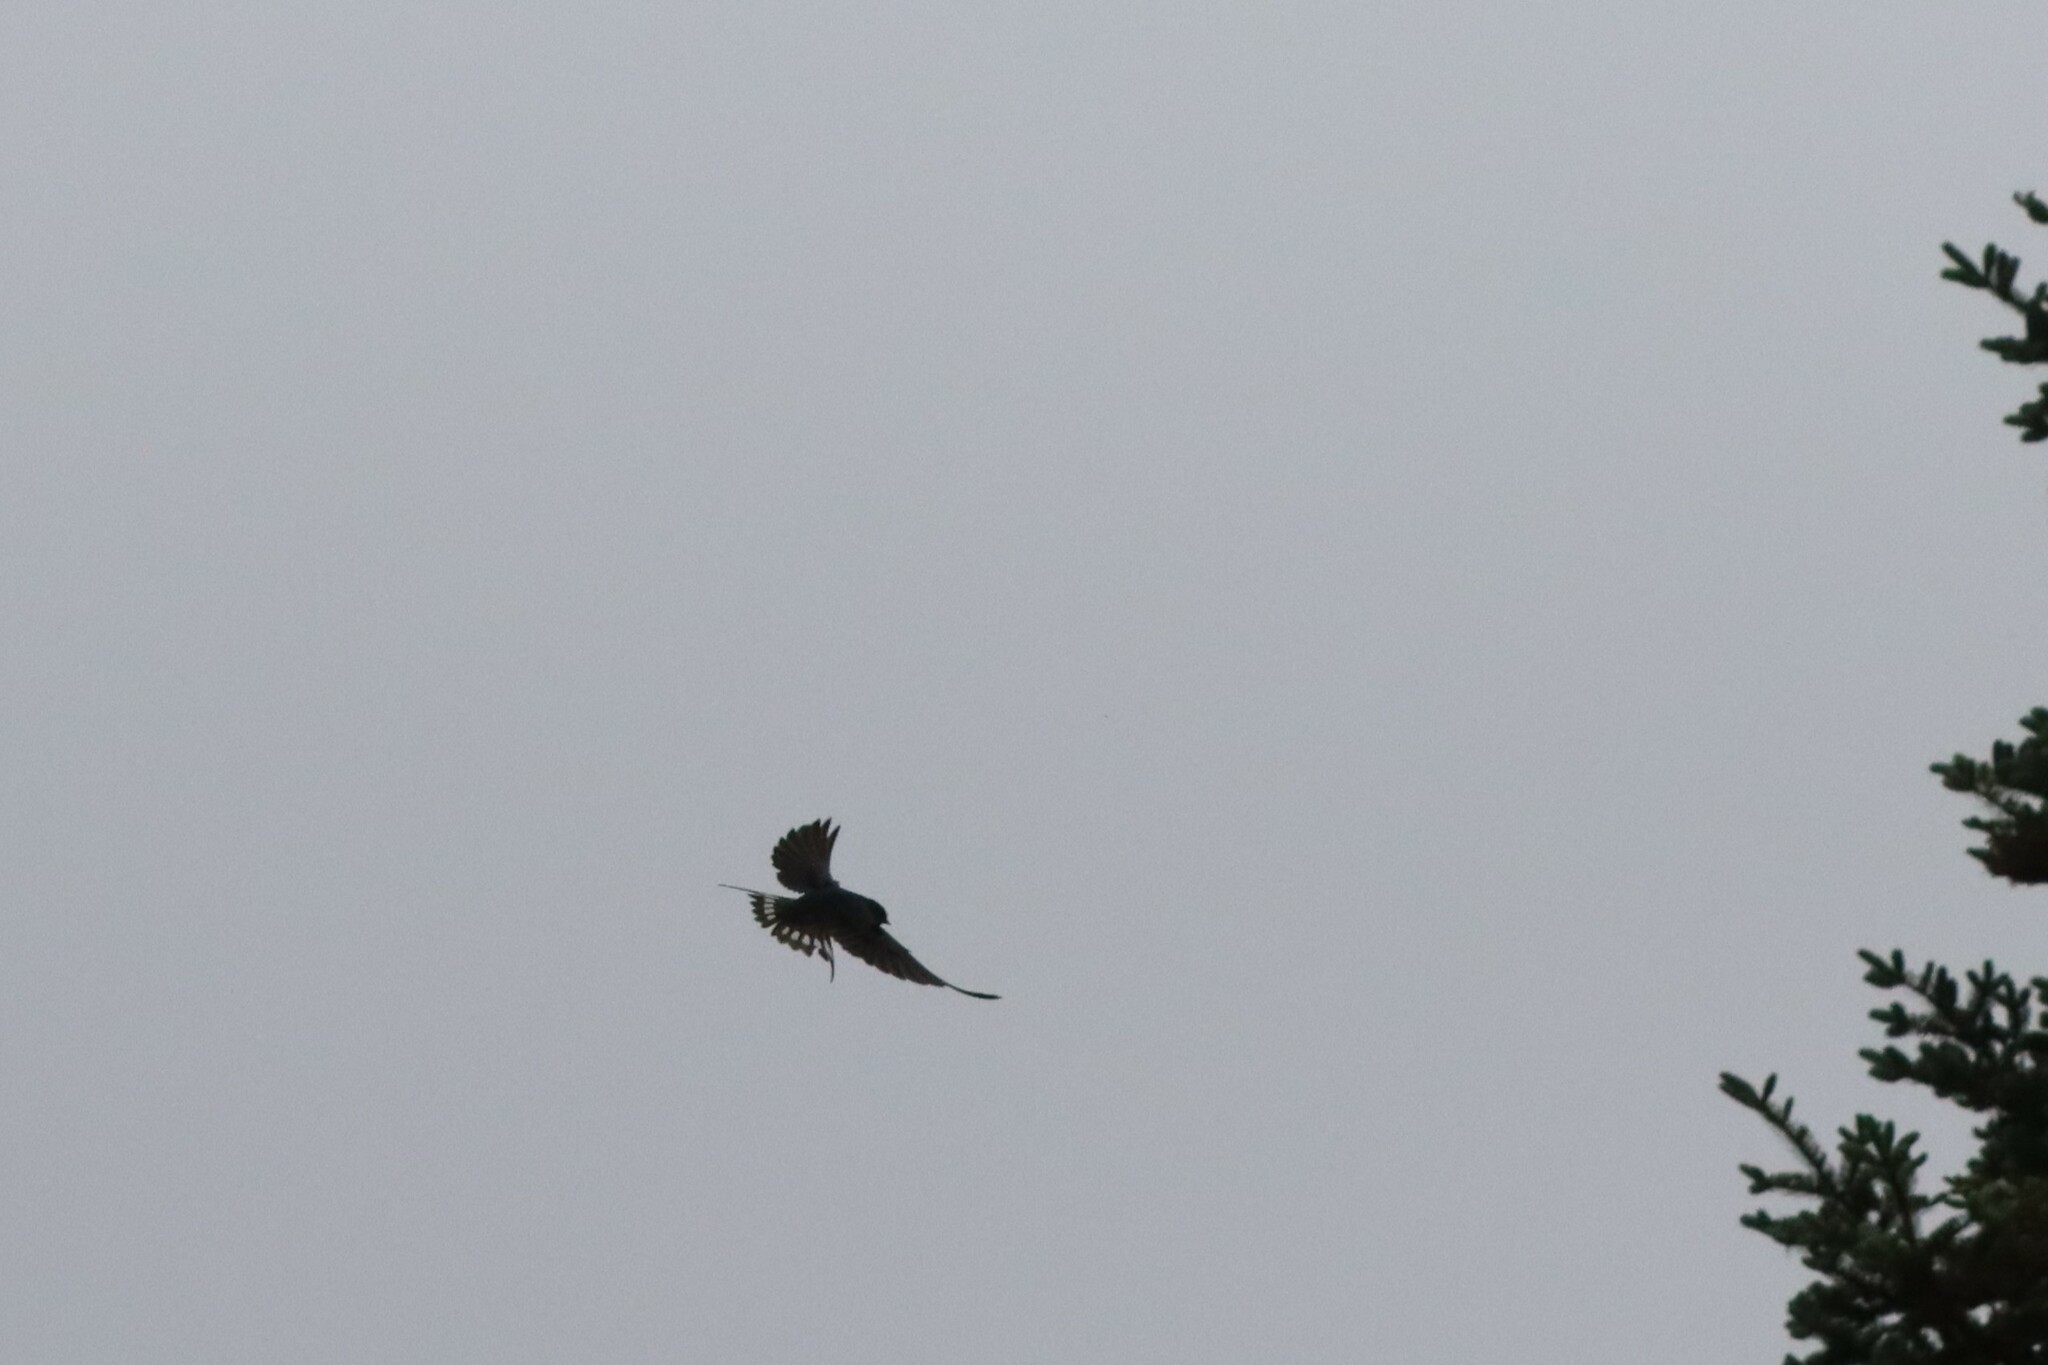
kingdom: Animalia
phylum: Chordata
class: Aves
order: Passeriformes
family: Hirundinidae
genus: Hirundo
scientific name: Hirundo rustica
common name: Barn swallow
